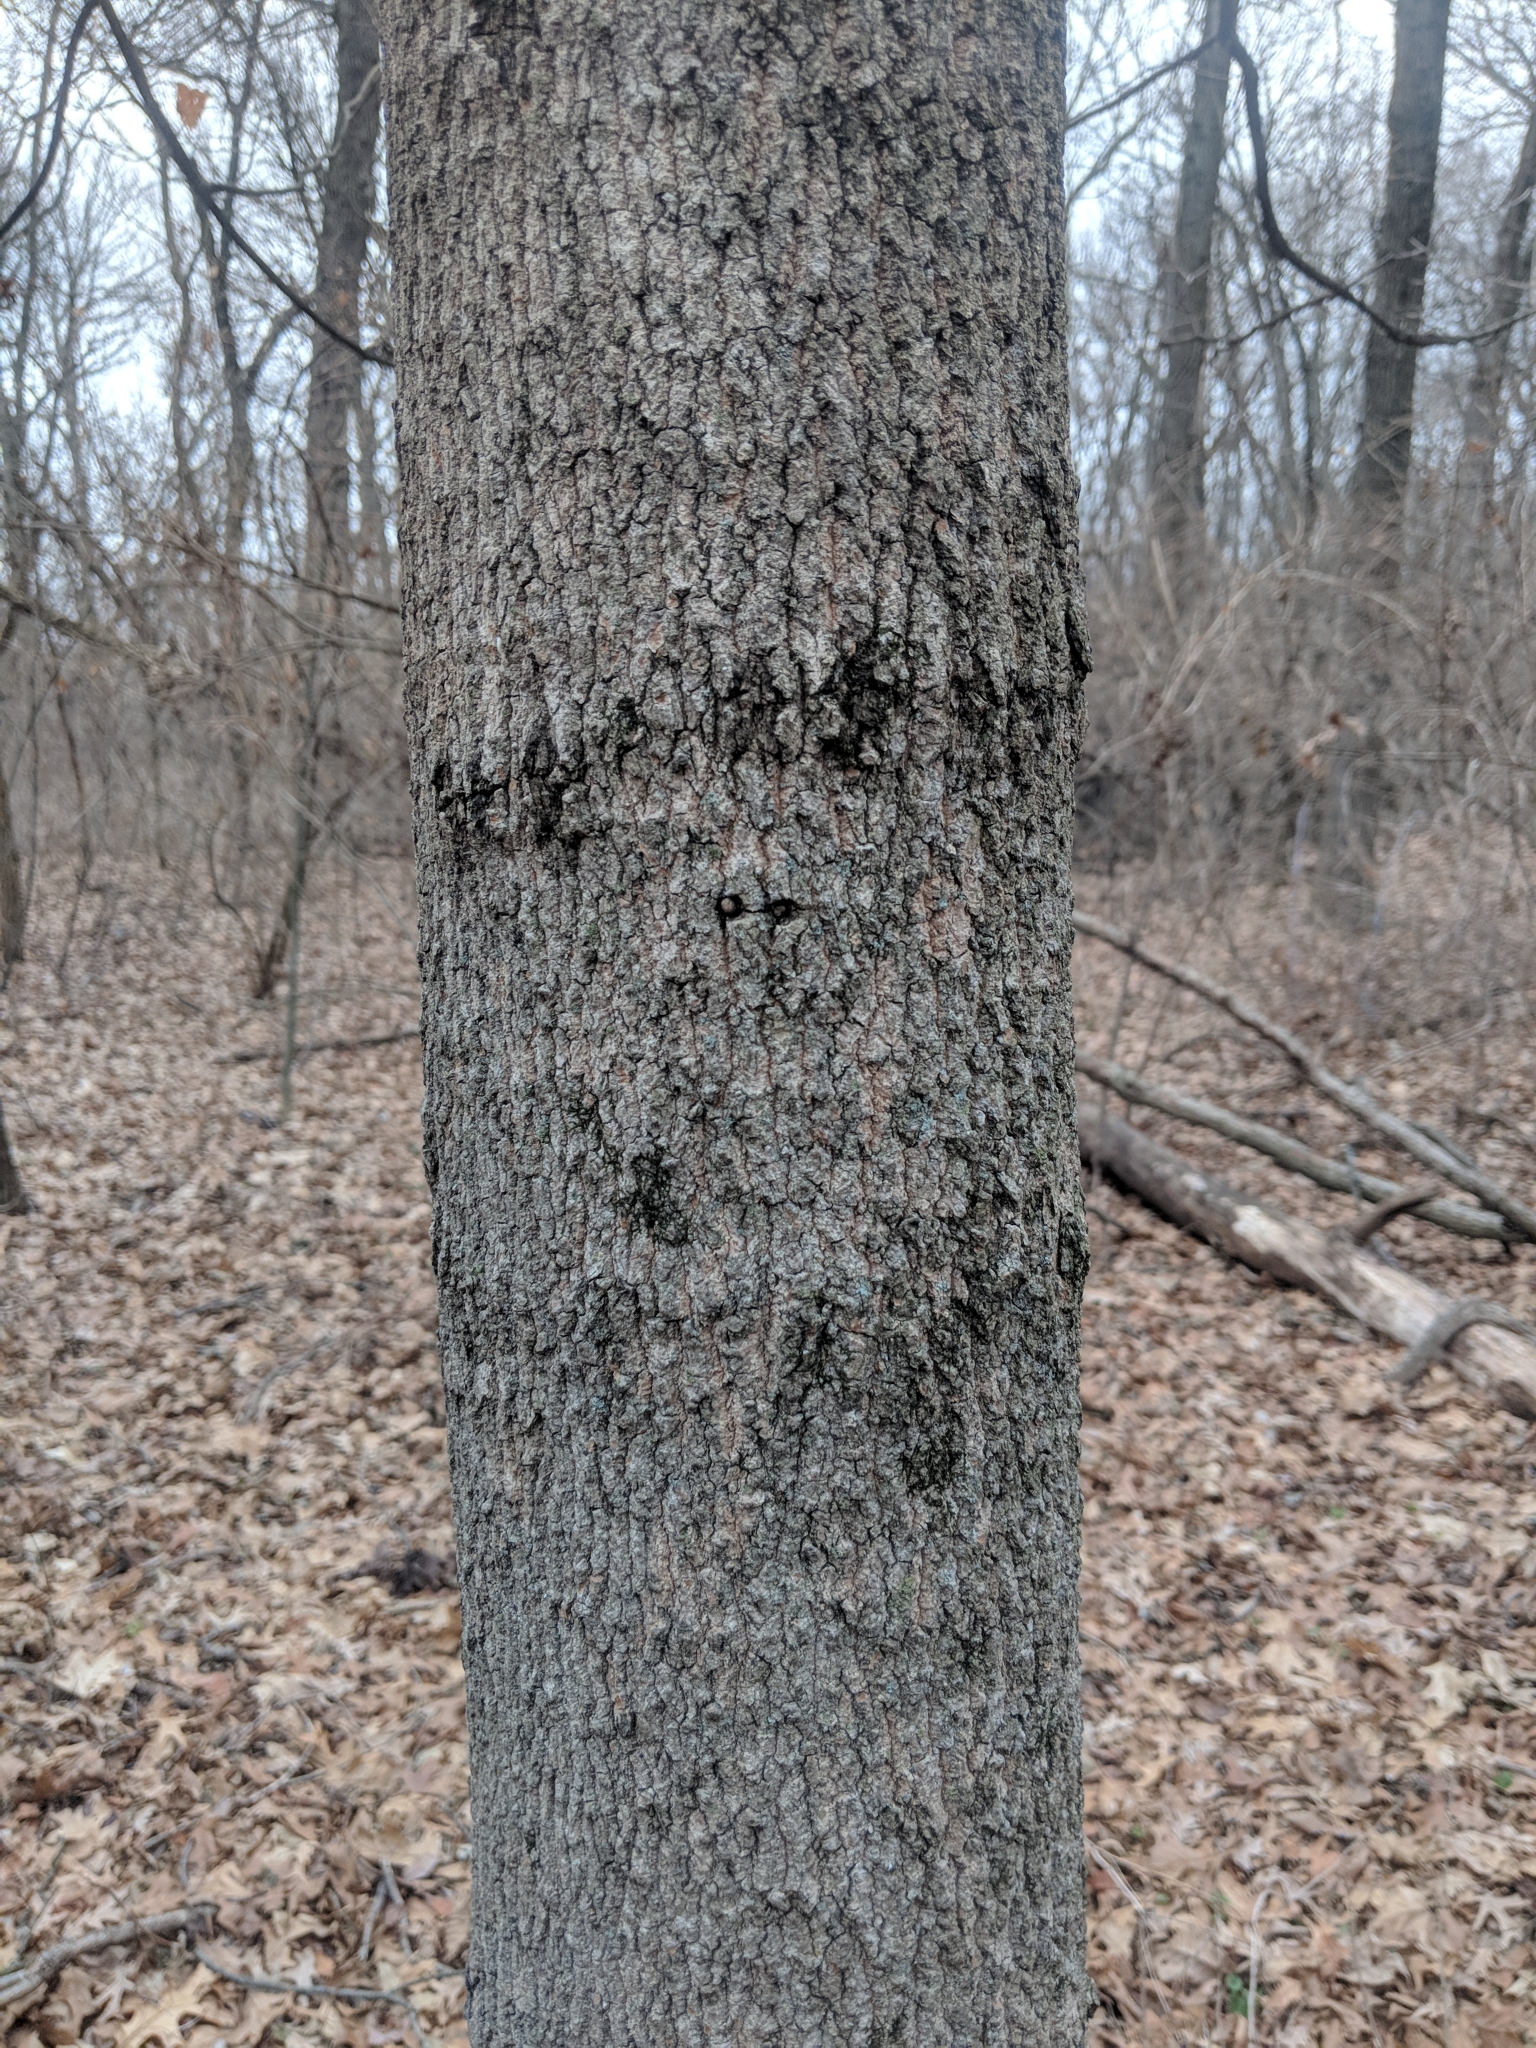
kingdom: Plantae
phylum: Tracheophyta
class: Magnoliopsida
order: Sapindales
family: Sapindaceae
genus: Acer
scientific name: Acer saccharum
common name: Sugar maple
